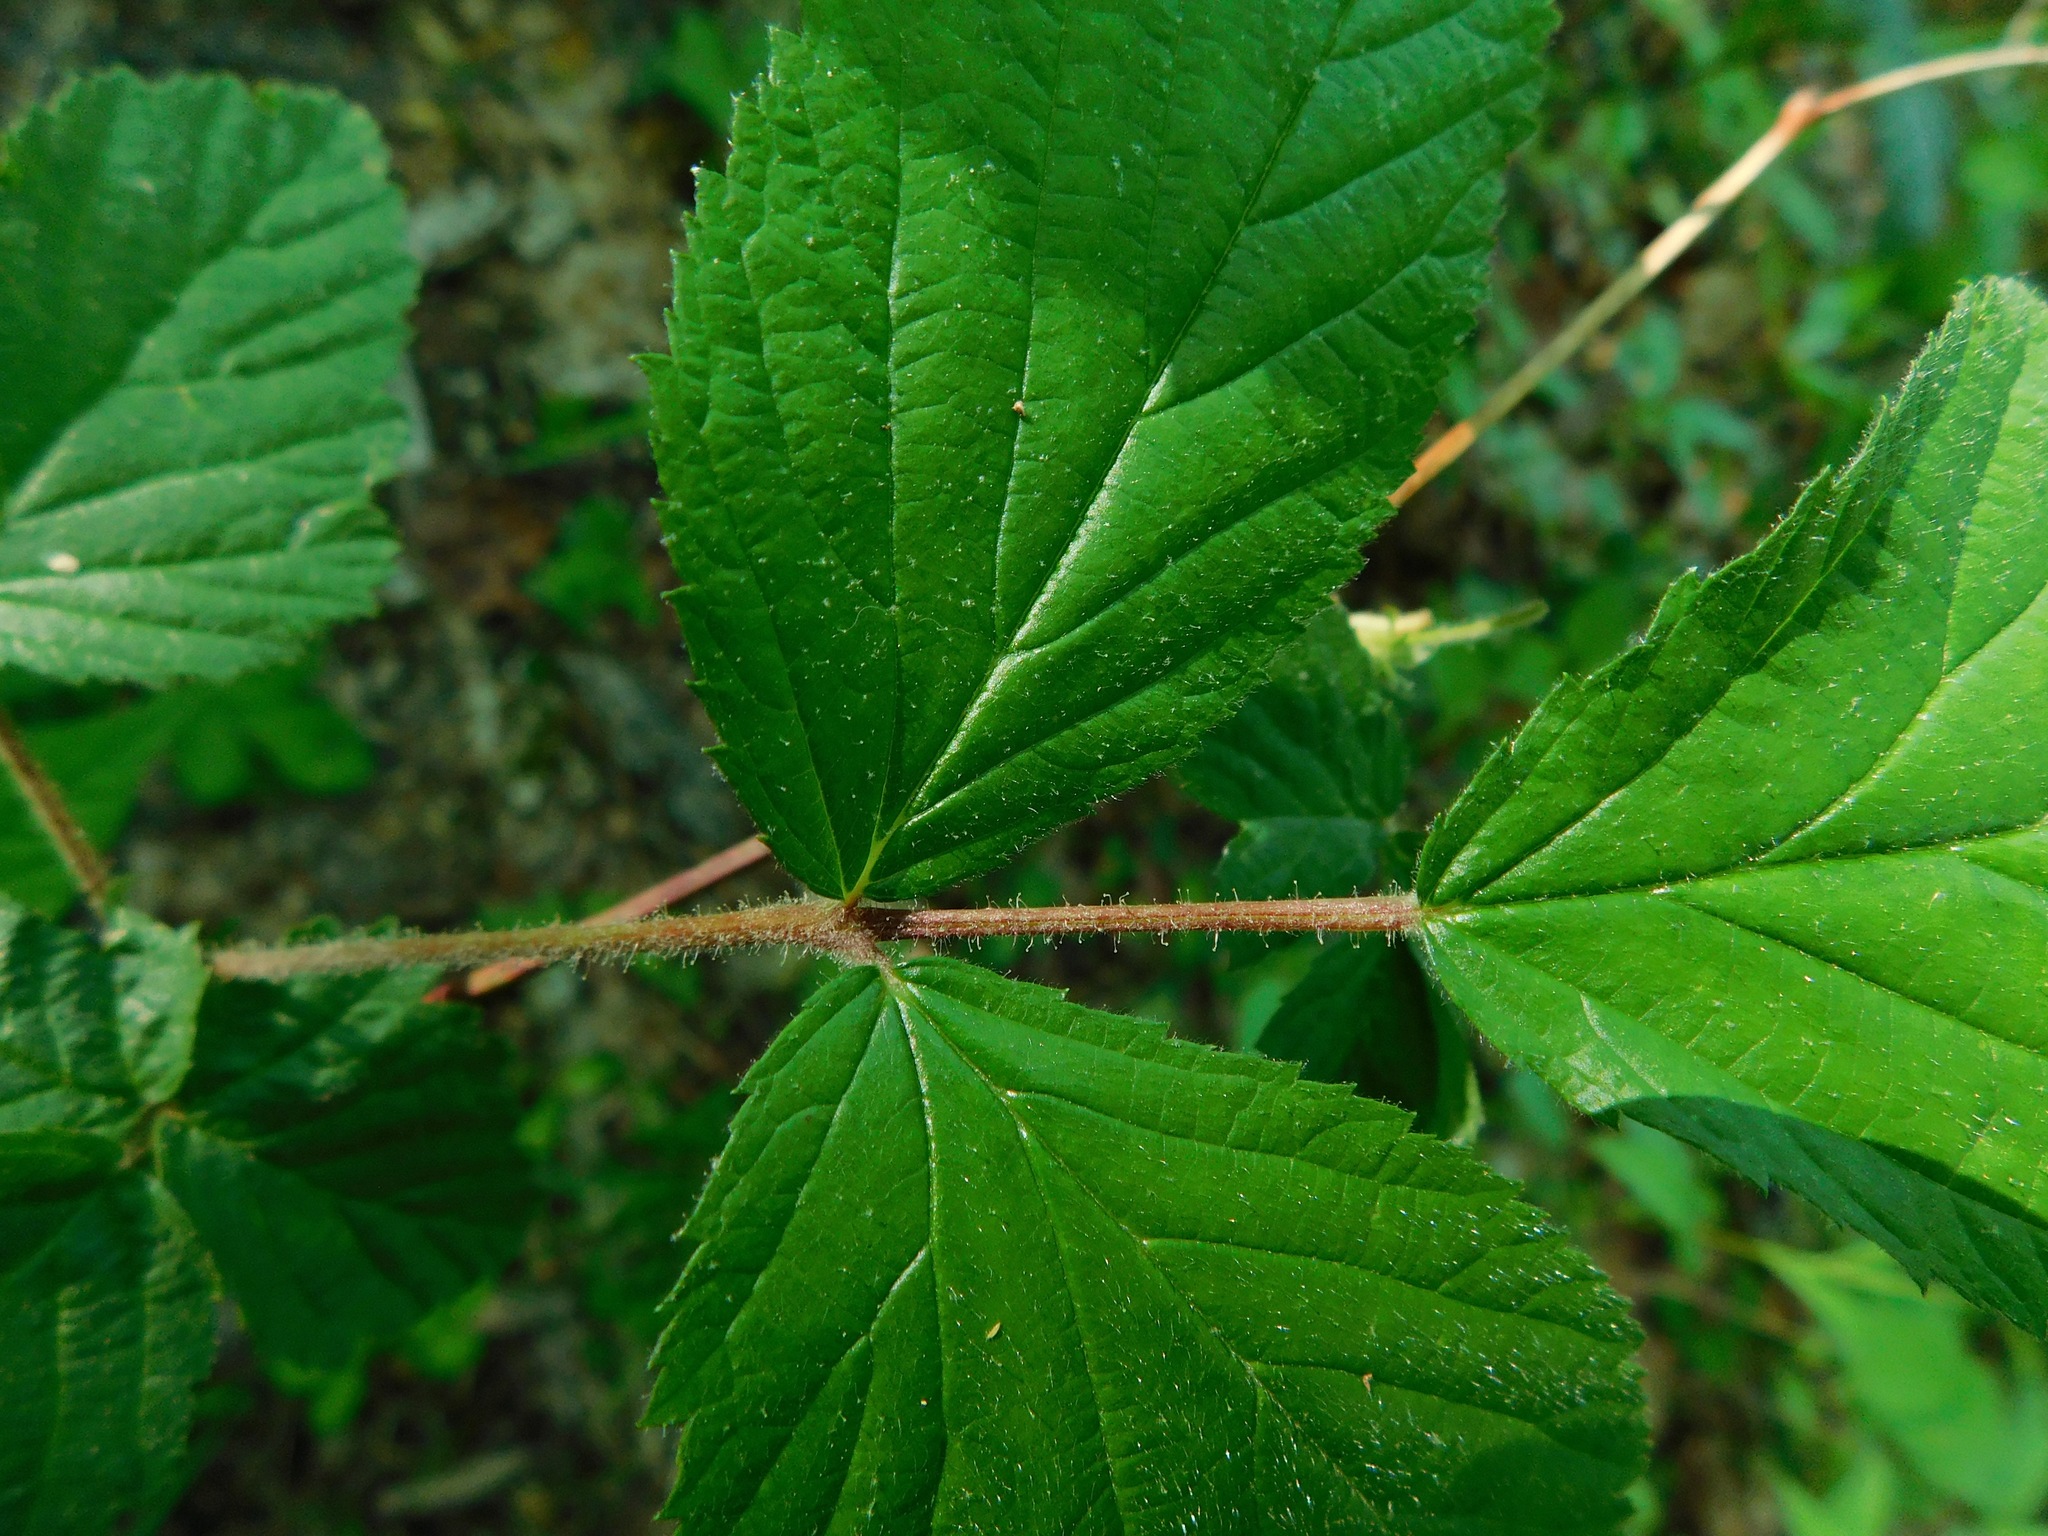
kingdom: Plantae
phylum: Tracheophyta
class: Magnoliopsida
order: Rosales
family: Rosaceae
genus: Rubus
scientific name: Rubus allegheniensis
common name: Allegheny blackberry
